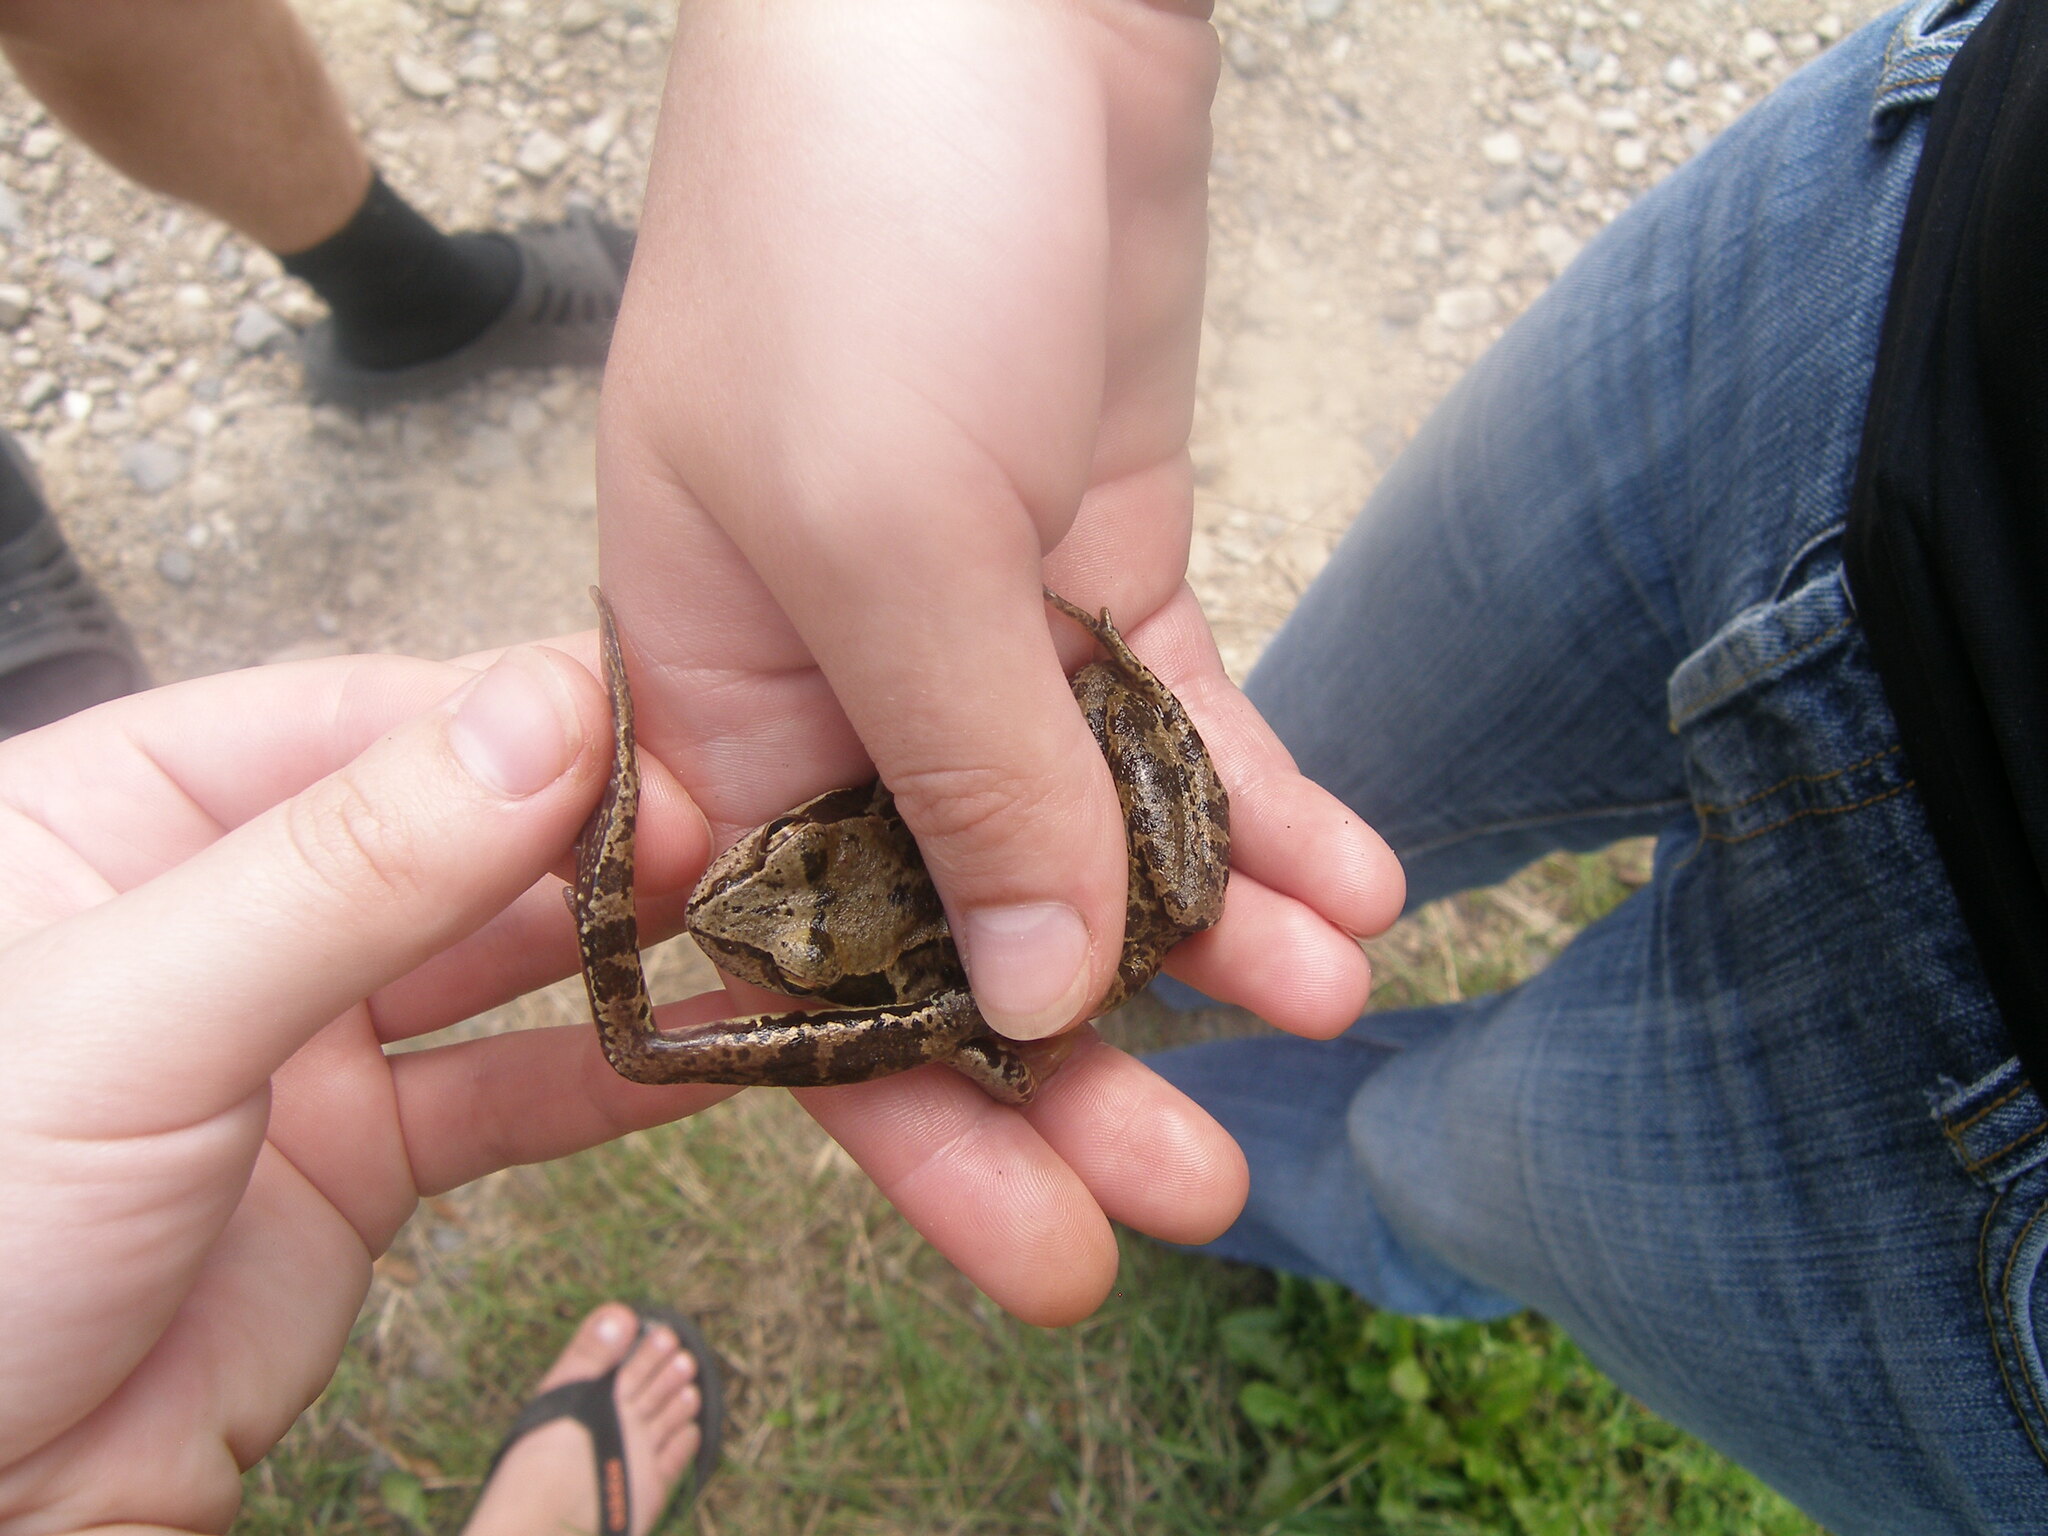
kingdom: Animalia
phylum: Chordata
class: Amphibia
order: Anura
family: Ranidae
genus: Rana
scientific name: Rana temporaria
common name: Common frog
